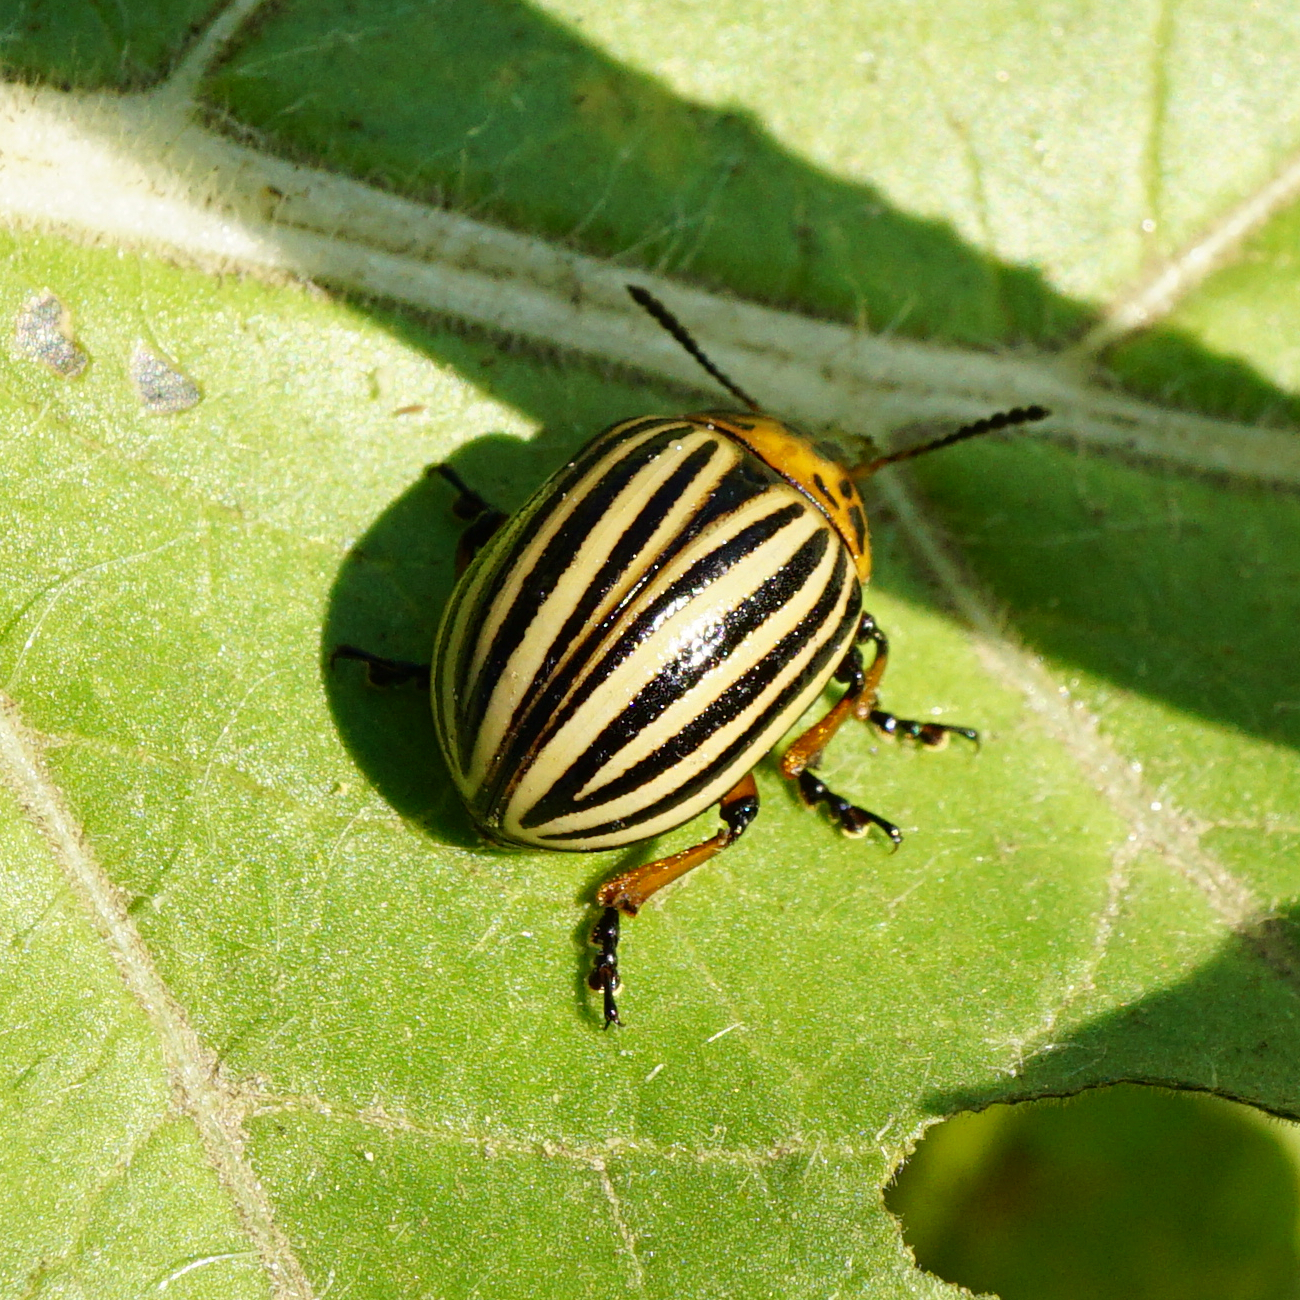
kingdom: Animalia
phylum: Arthropoda
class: Insecta
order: Coleoptera
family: Chrysomelidae
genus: Leptinotarsa
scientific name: Leptinotarsa decemlineata
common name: Colorado potato beetle
